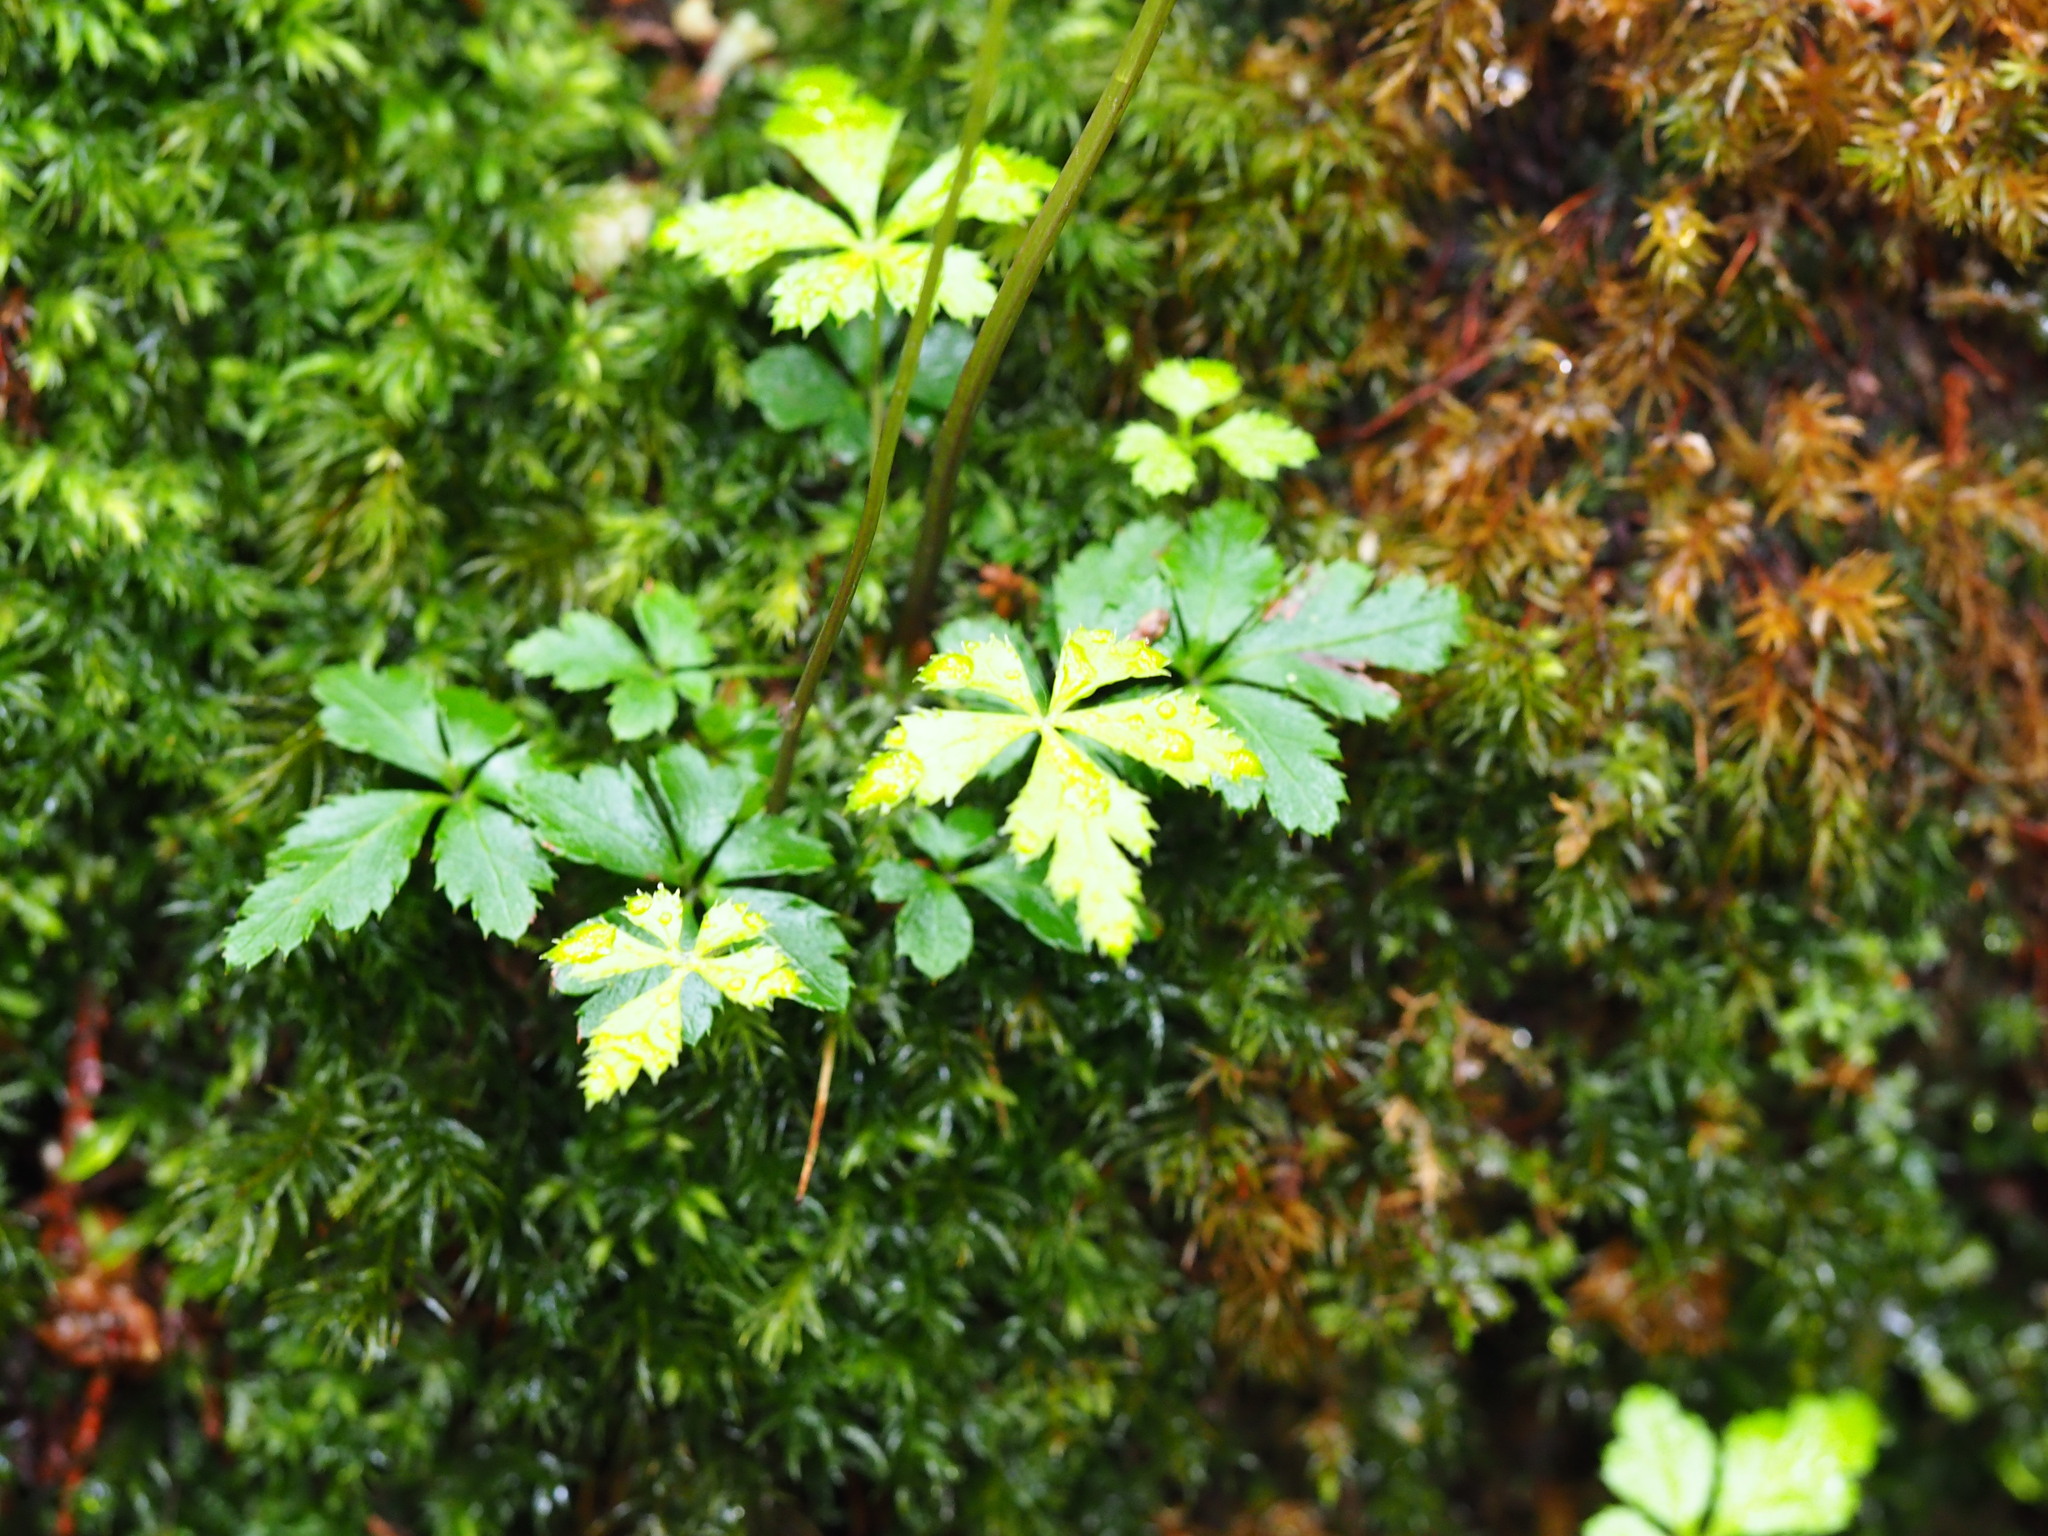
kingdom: Plantae
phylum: Tracheophyta
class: Magnoliopsida
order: Ranunculales
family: Ranunculaceae
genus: Coptis
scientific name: Coptis quinquefolia
